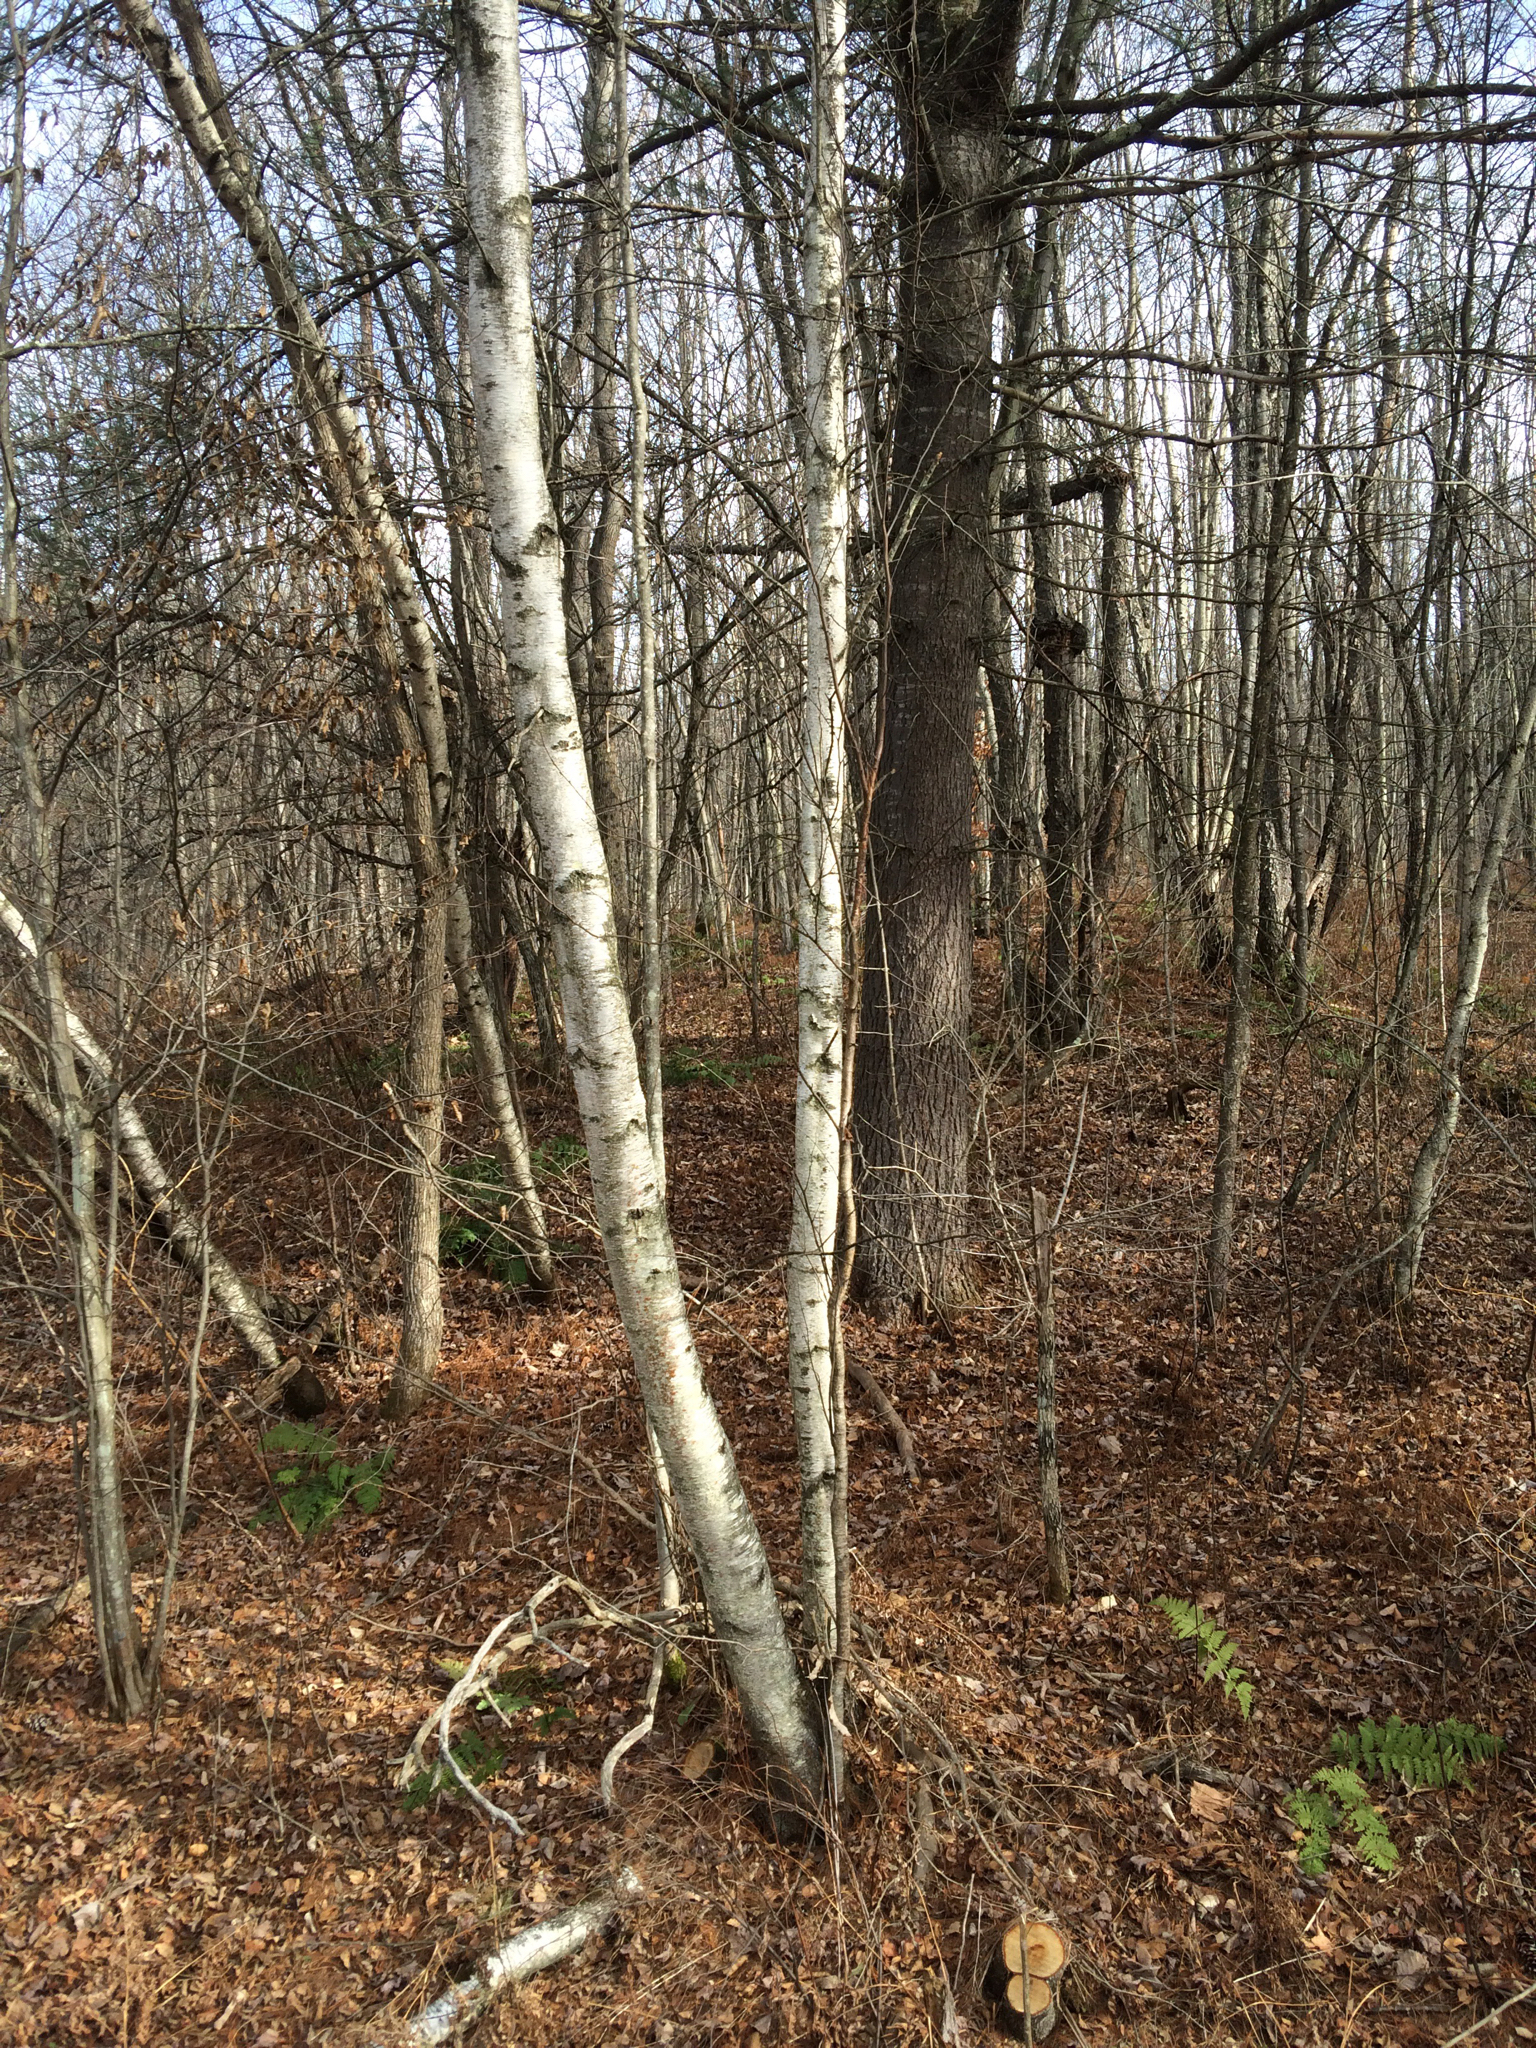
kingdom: Plantae
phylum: Tracheophyta
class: Magnoliopsida
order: Fagales
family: Betulaceae
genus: Betula
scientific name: Betula populifolia
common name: Fire birch
